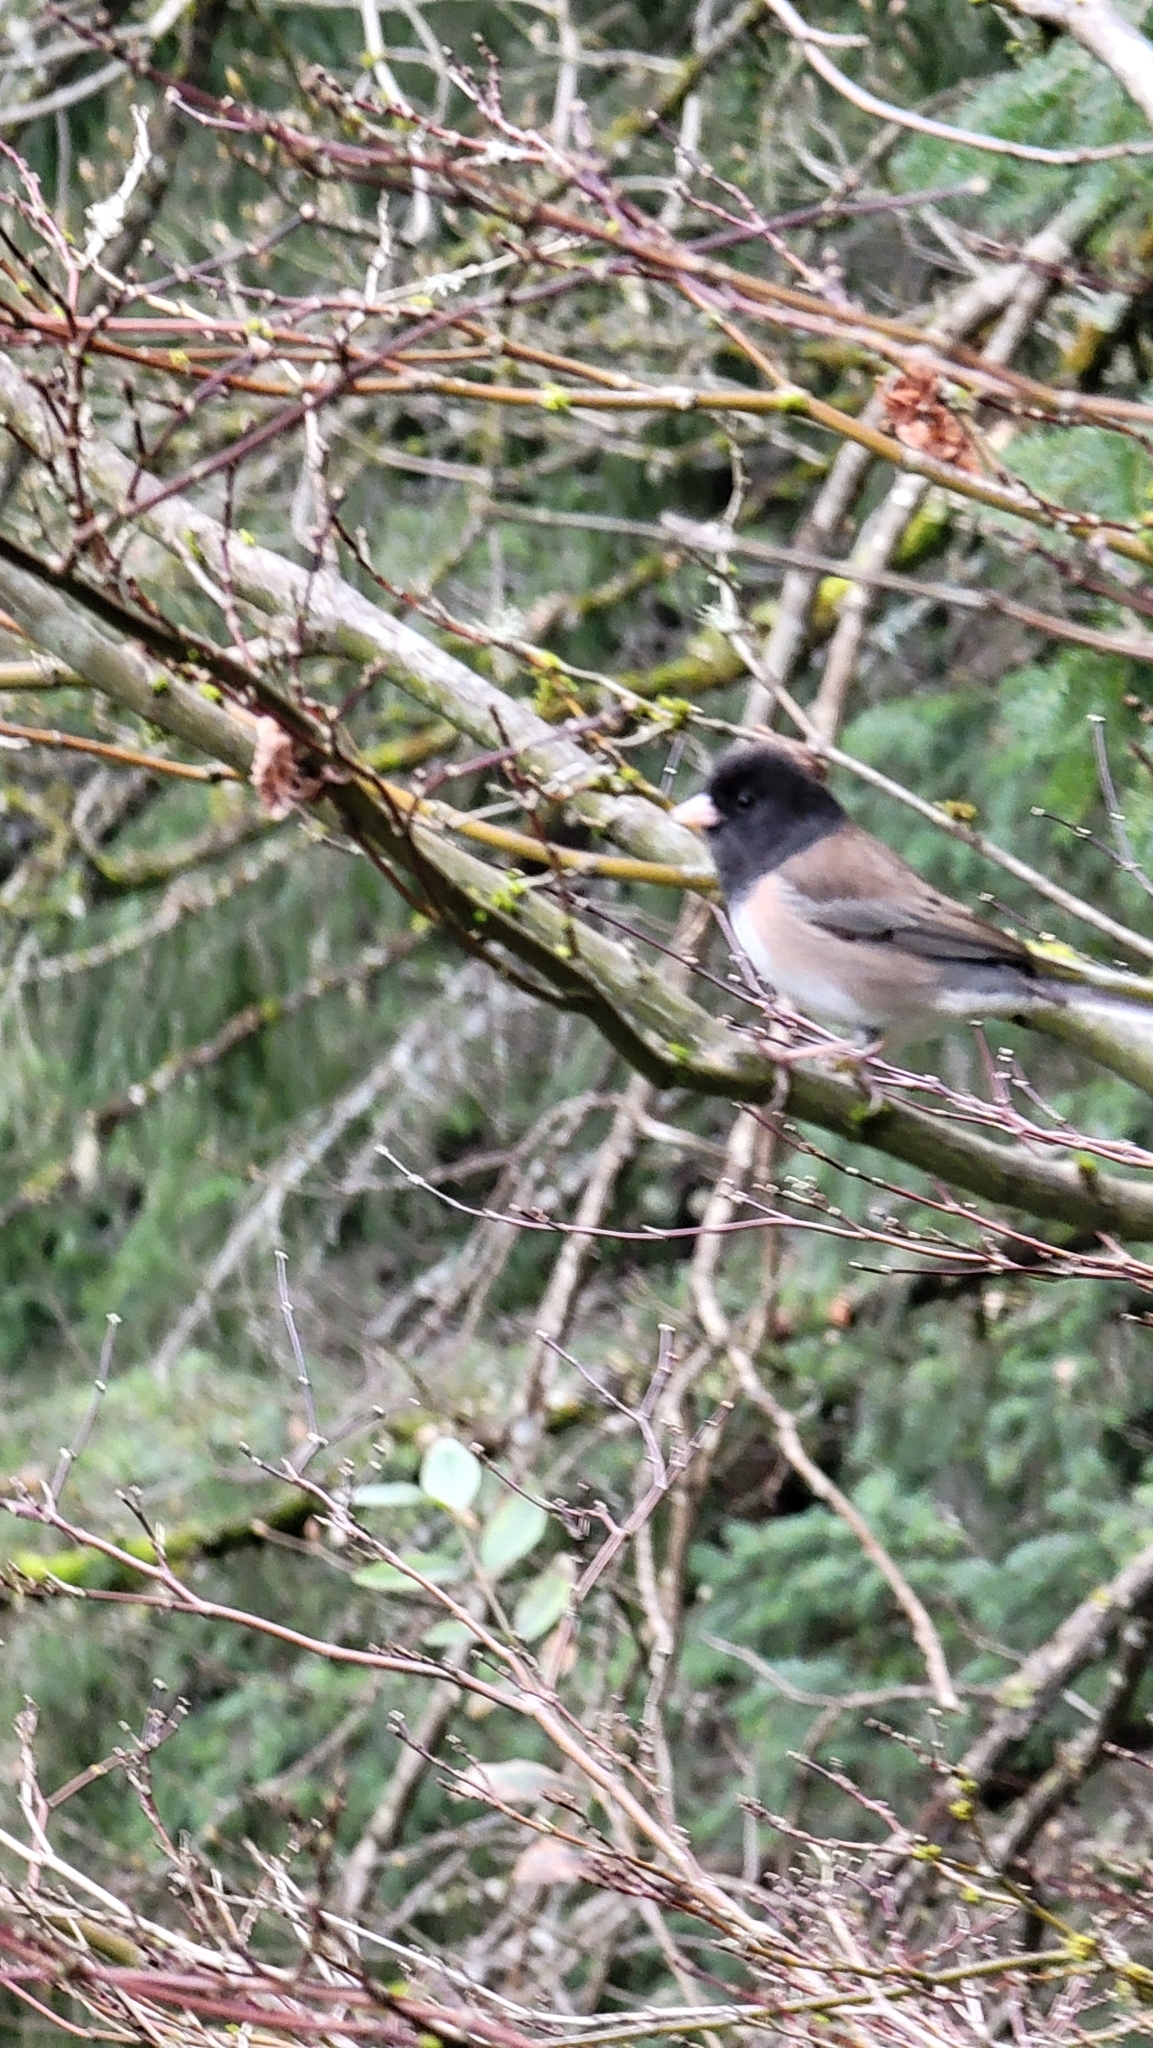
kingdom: Animalia
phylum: Chordata
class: Aves
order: Passeriformes
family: Passerellidae
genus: Junco
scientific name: Junco hyemalis
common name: Dark-eyed junco
